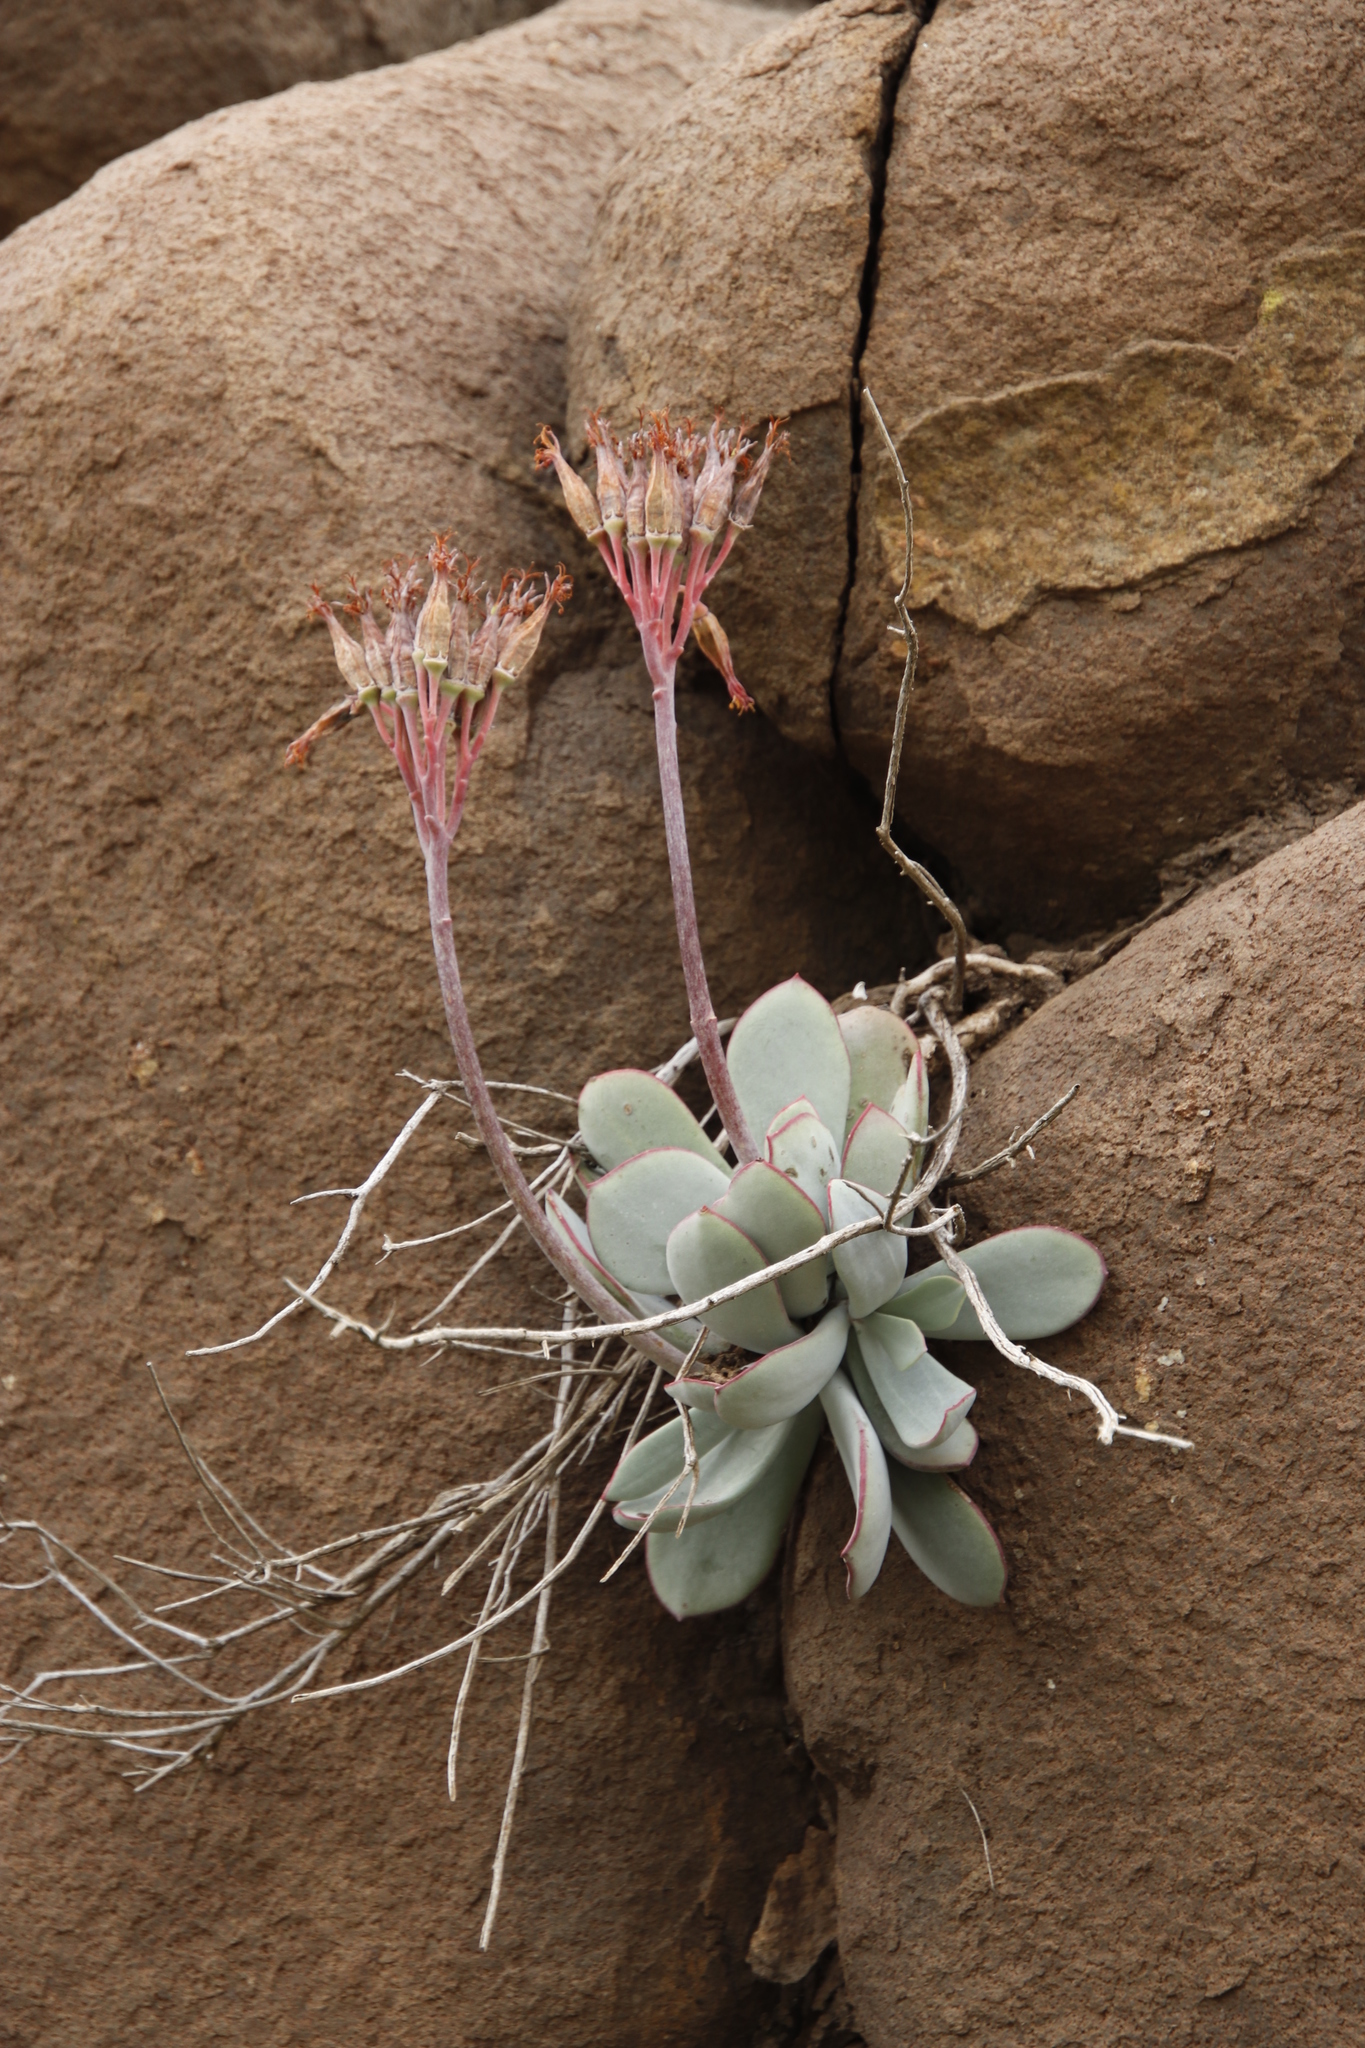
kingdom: Plantae
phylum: Tracheophyta
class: Magnoliopsida
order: Saxifragales
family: Crassulaceae
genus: Cotyledon
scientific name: Cotyledon orbiculata
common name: Pig's ear
